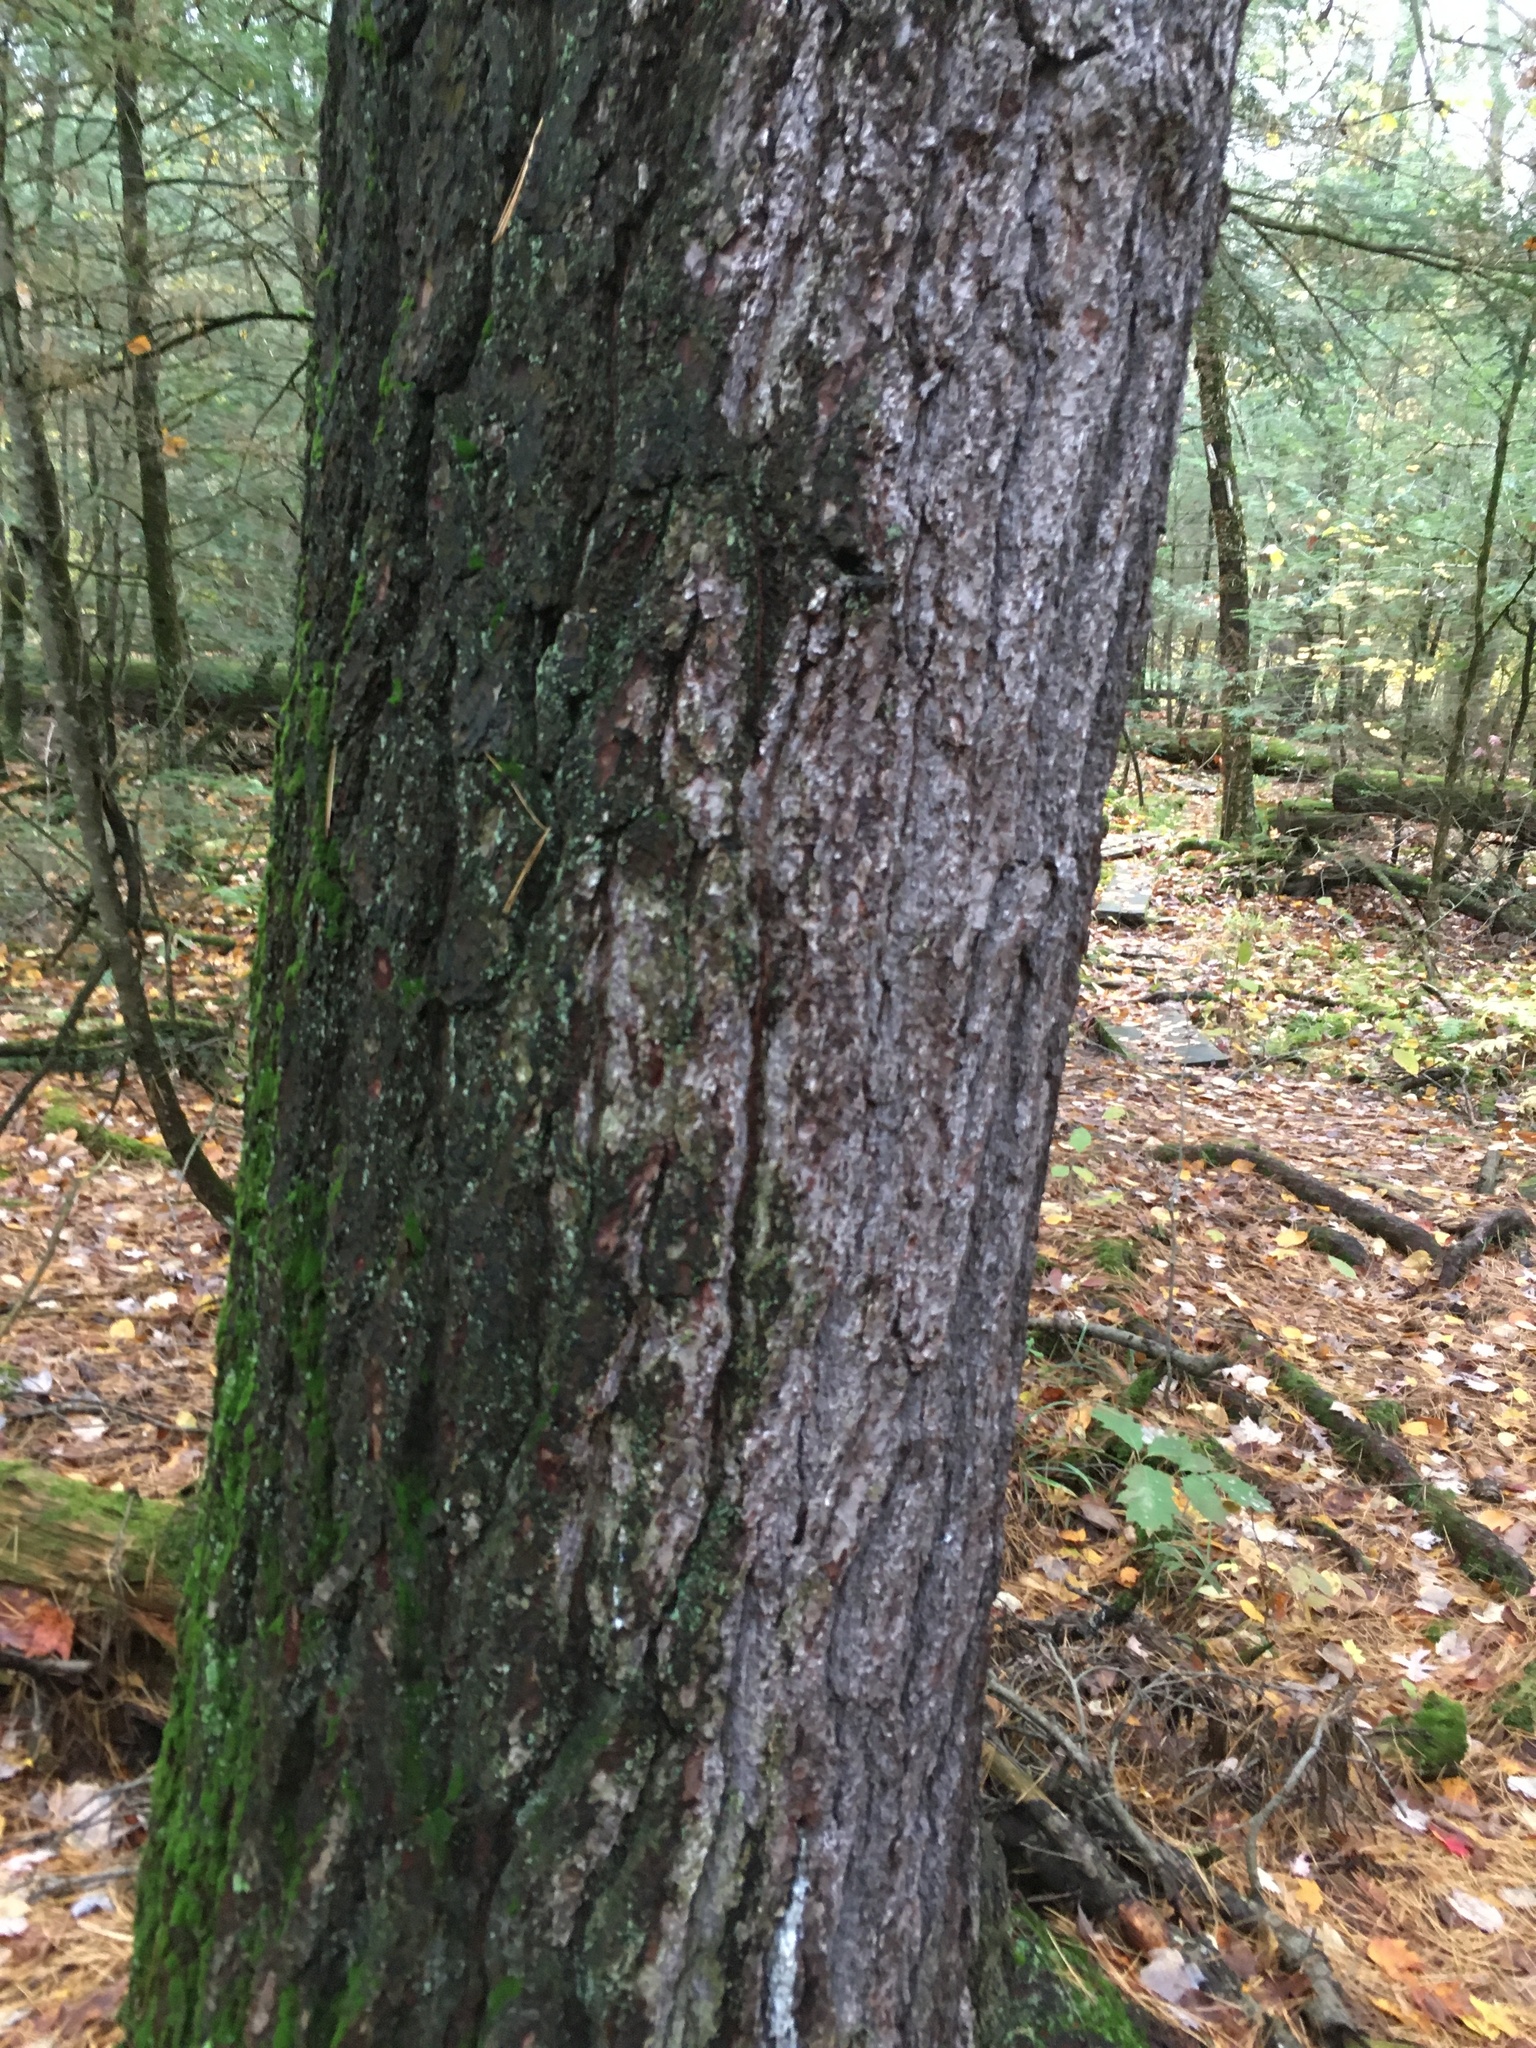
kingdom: Plantae
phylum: Tracheophyta
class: Pinopsida
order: Pinales
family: Pinaceae
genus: Pinus
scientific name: Pinus strobus
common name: Weymouth pine
